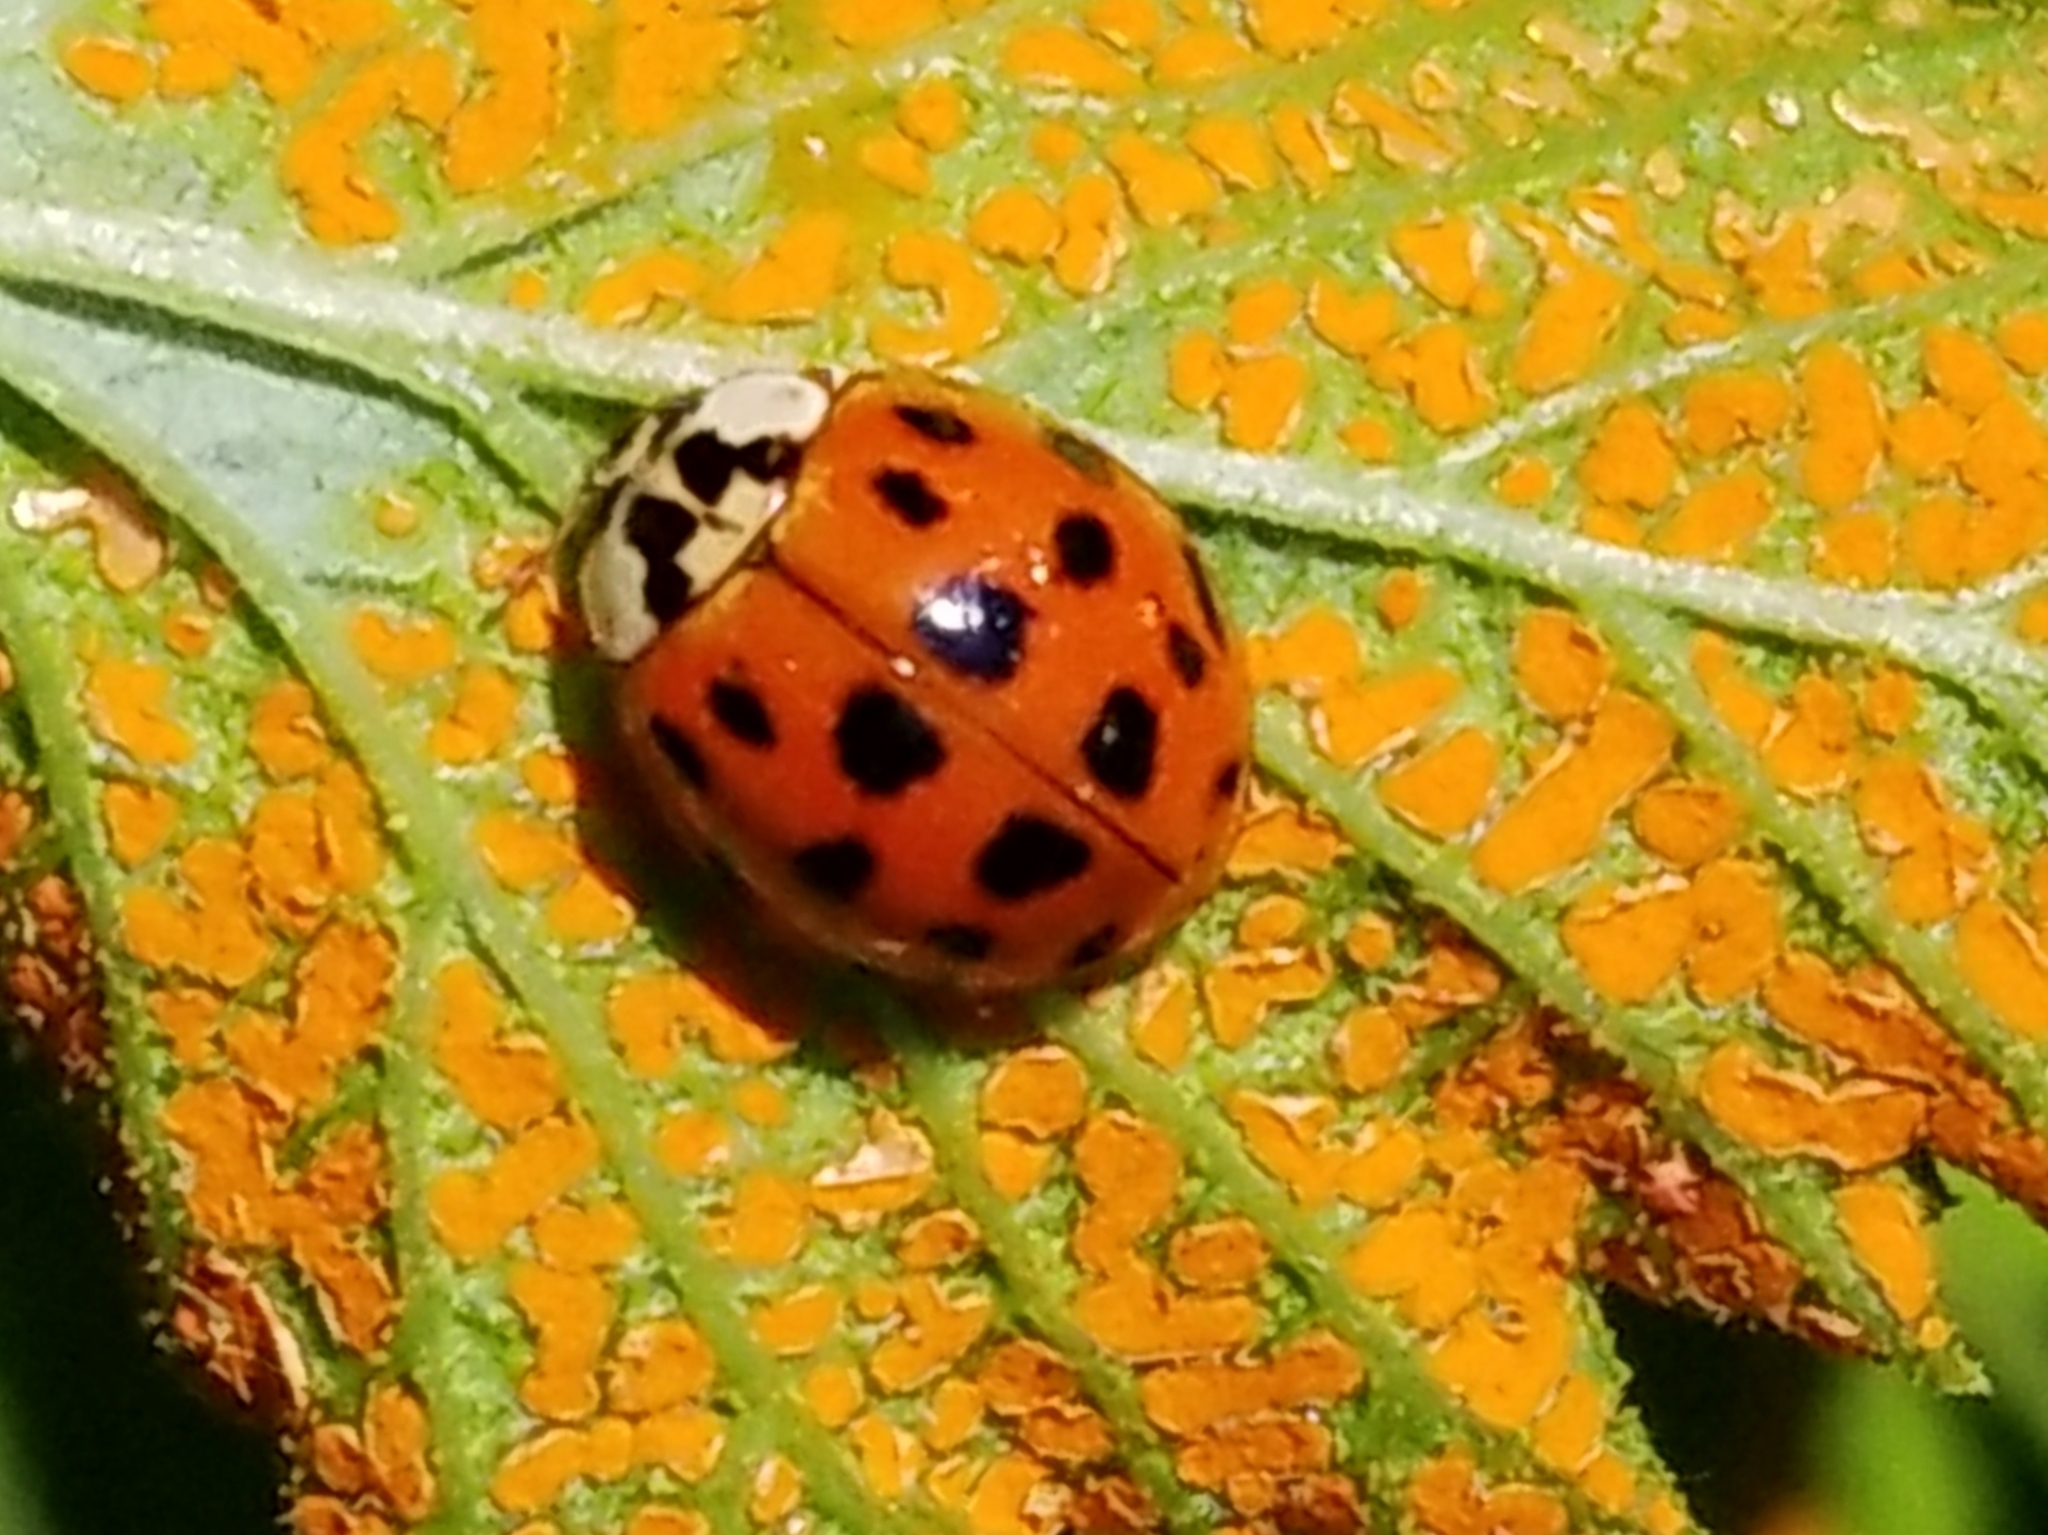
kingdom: Animalia
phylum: Arthropoda
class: Insecta
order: Coleoptera
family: Coccinellidae
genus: Harmonia
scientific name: Harmonia axyridis
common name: Harlequin ladybird
